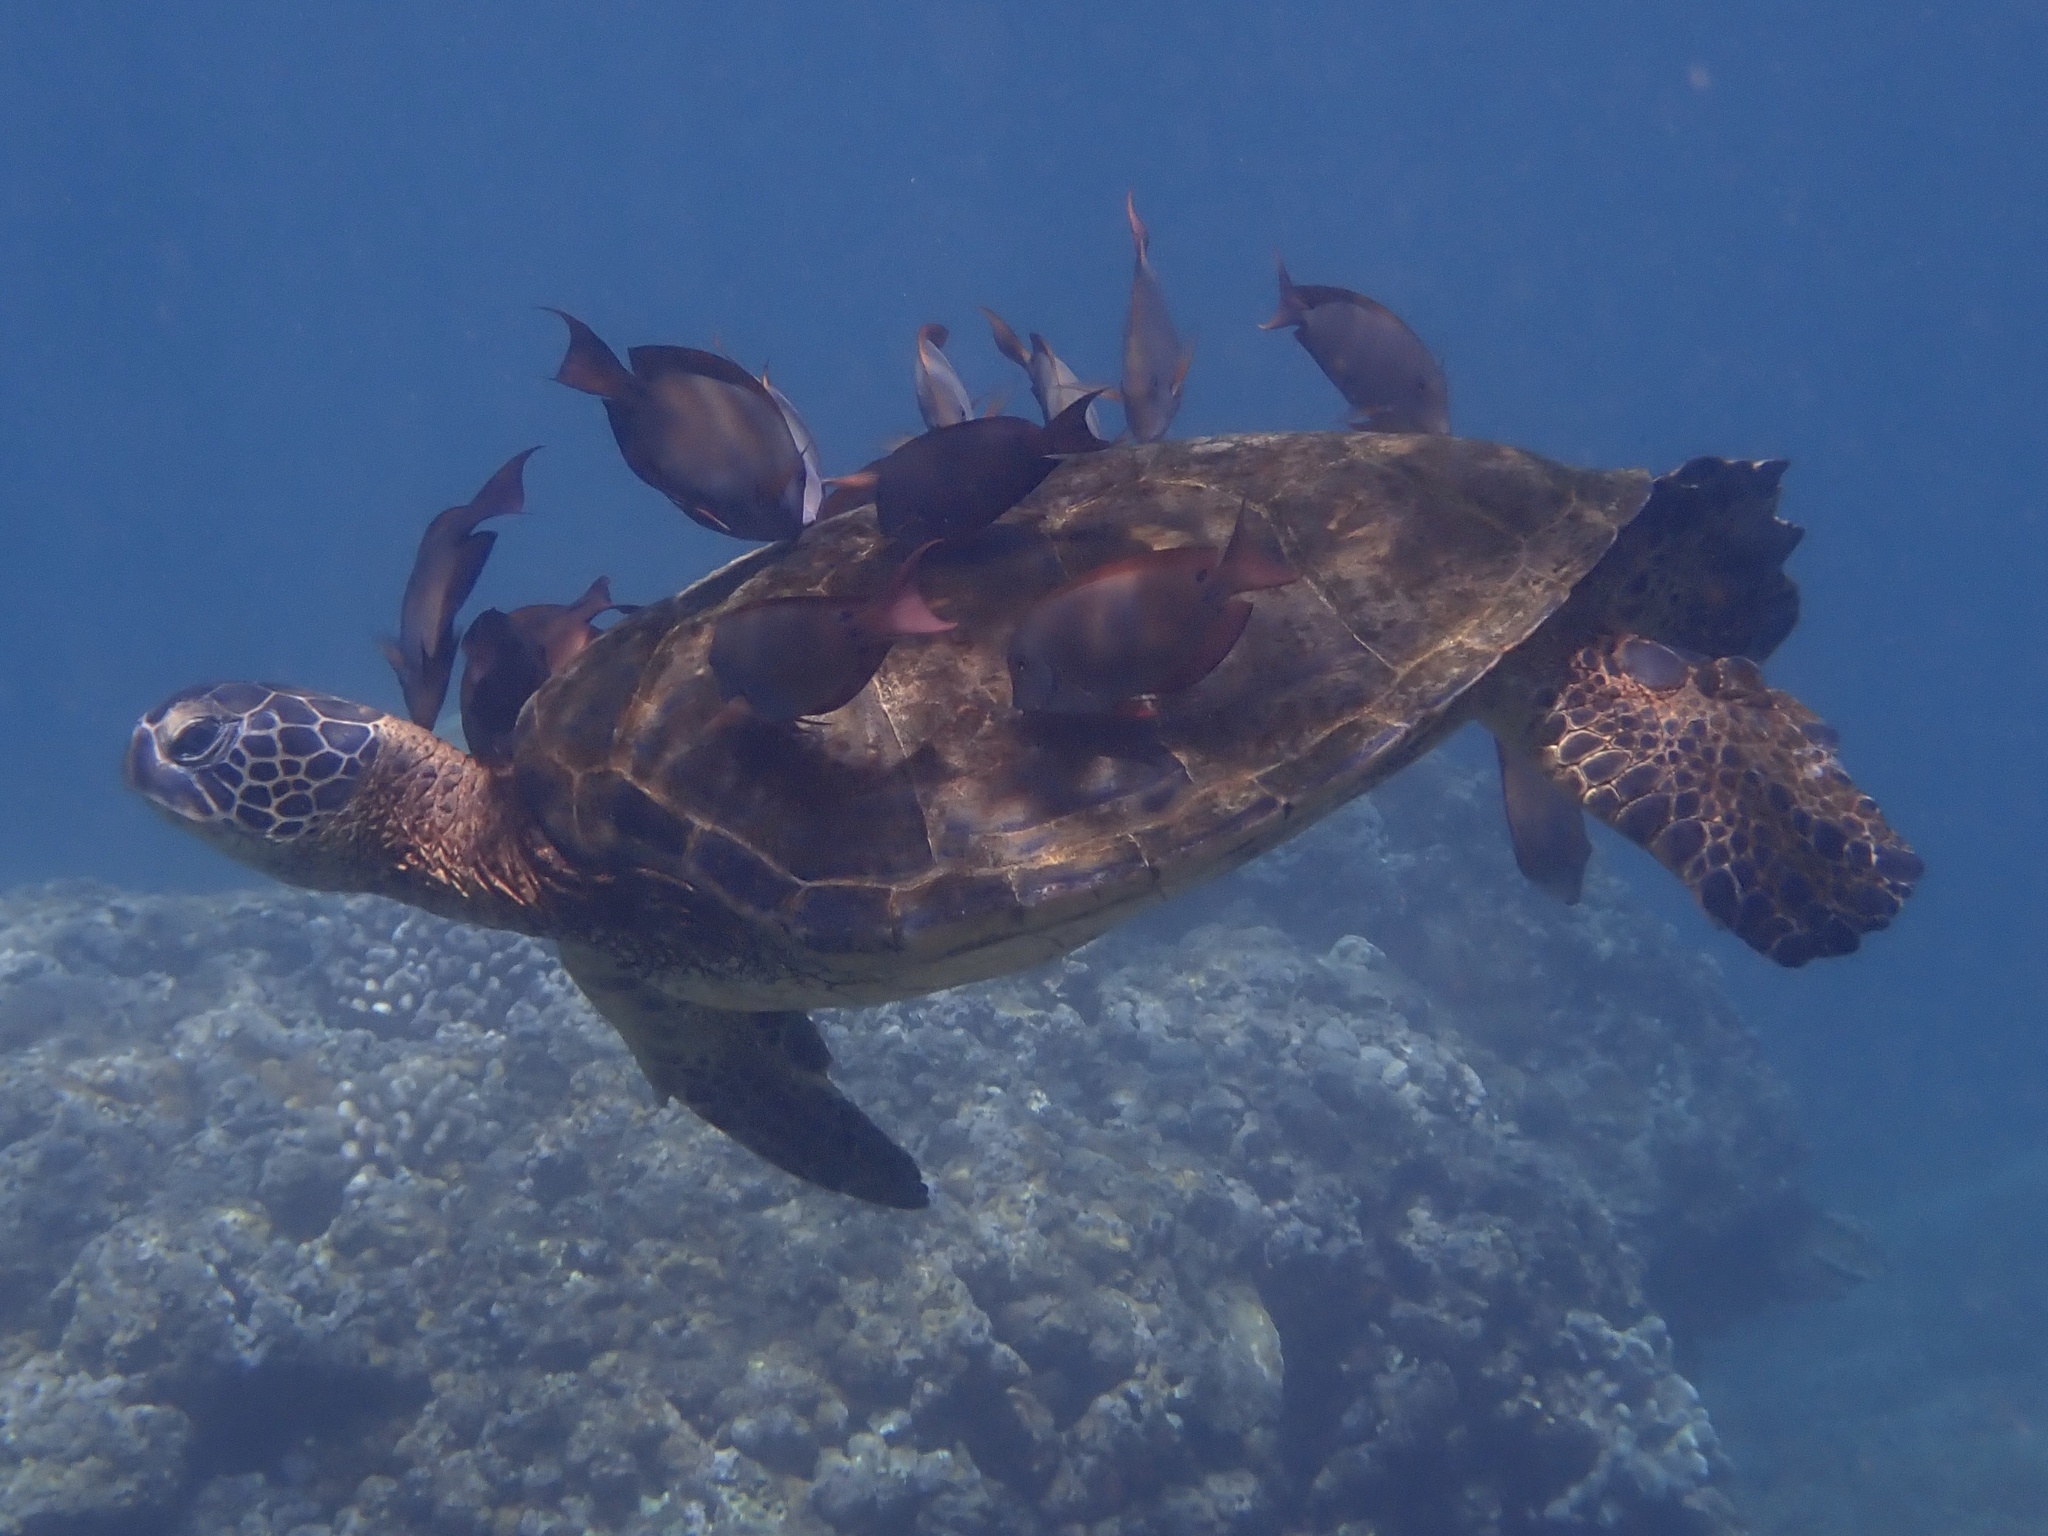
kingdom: Animalia
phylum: Chordata
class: Testudines
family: Cheloniidae
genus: Chelonia
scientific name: Chelonia mydas
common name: Green turtle
